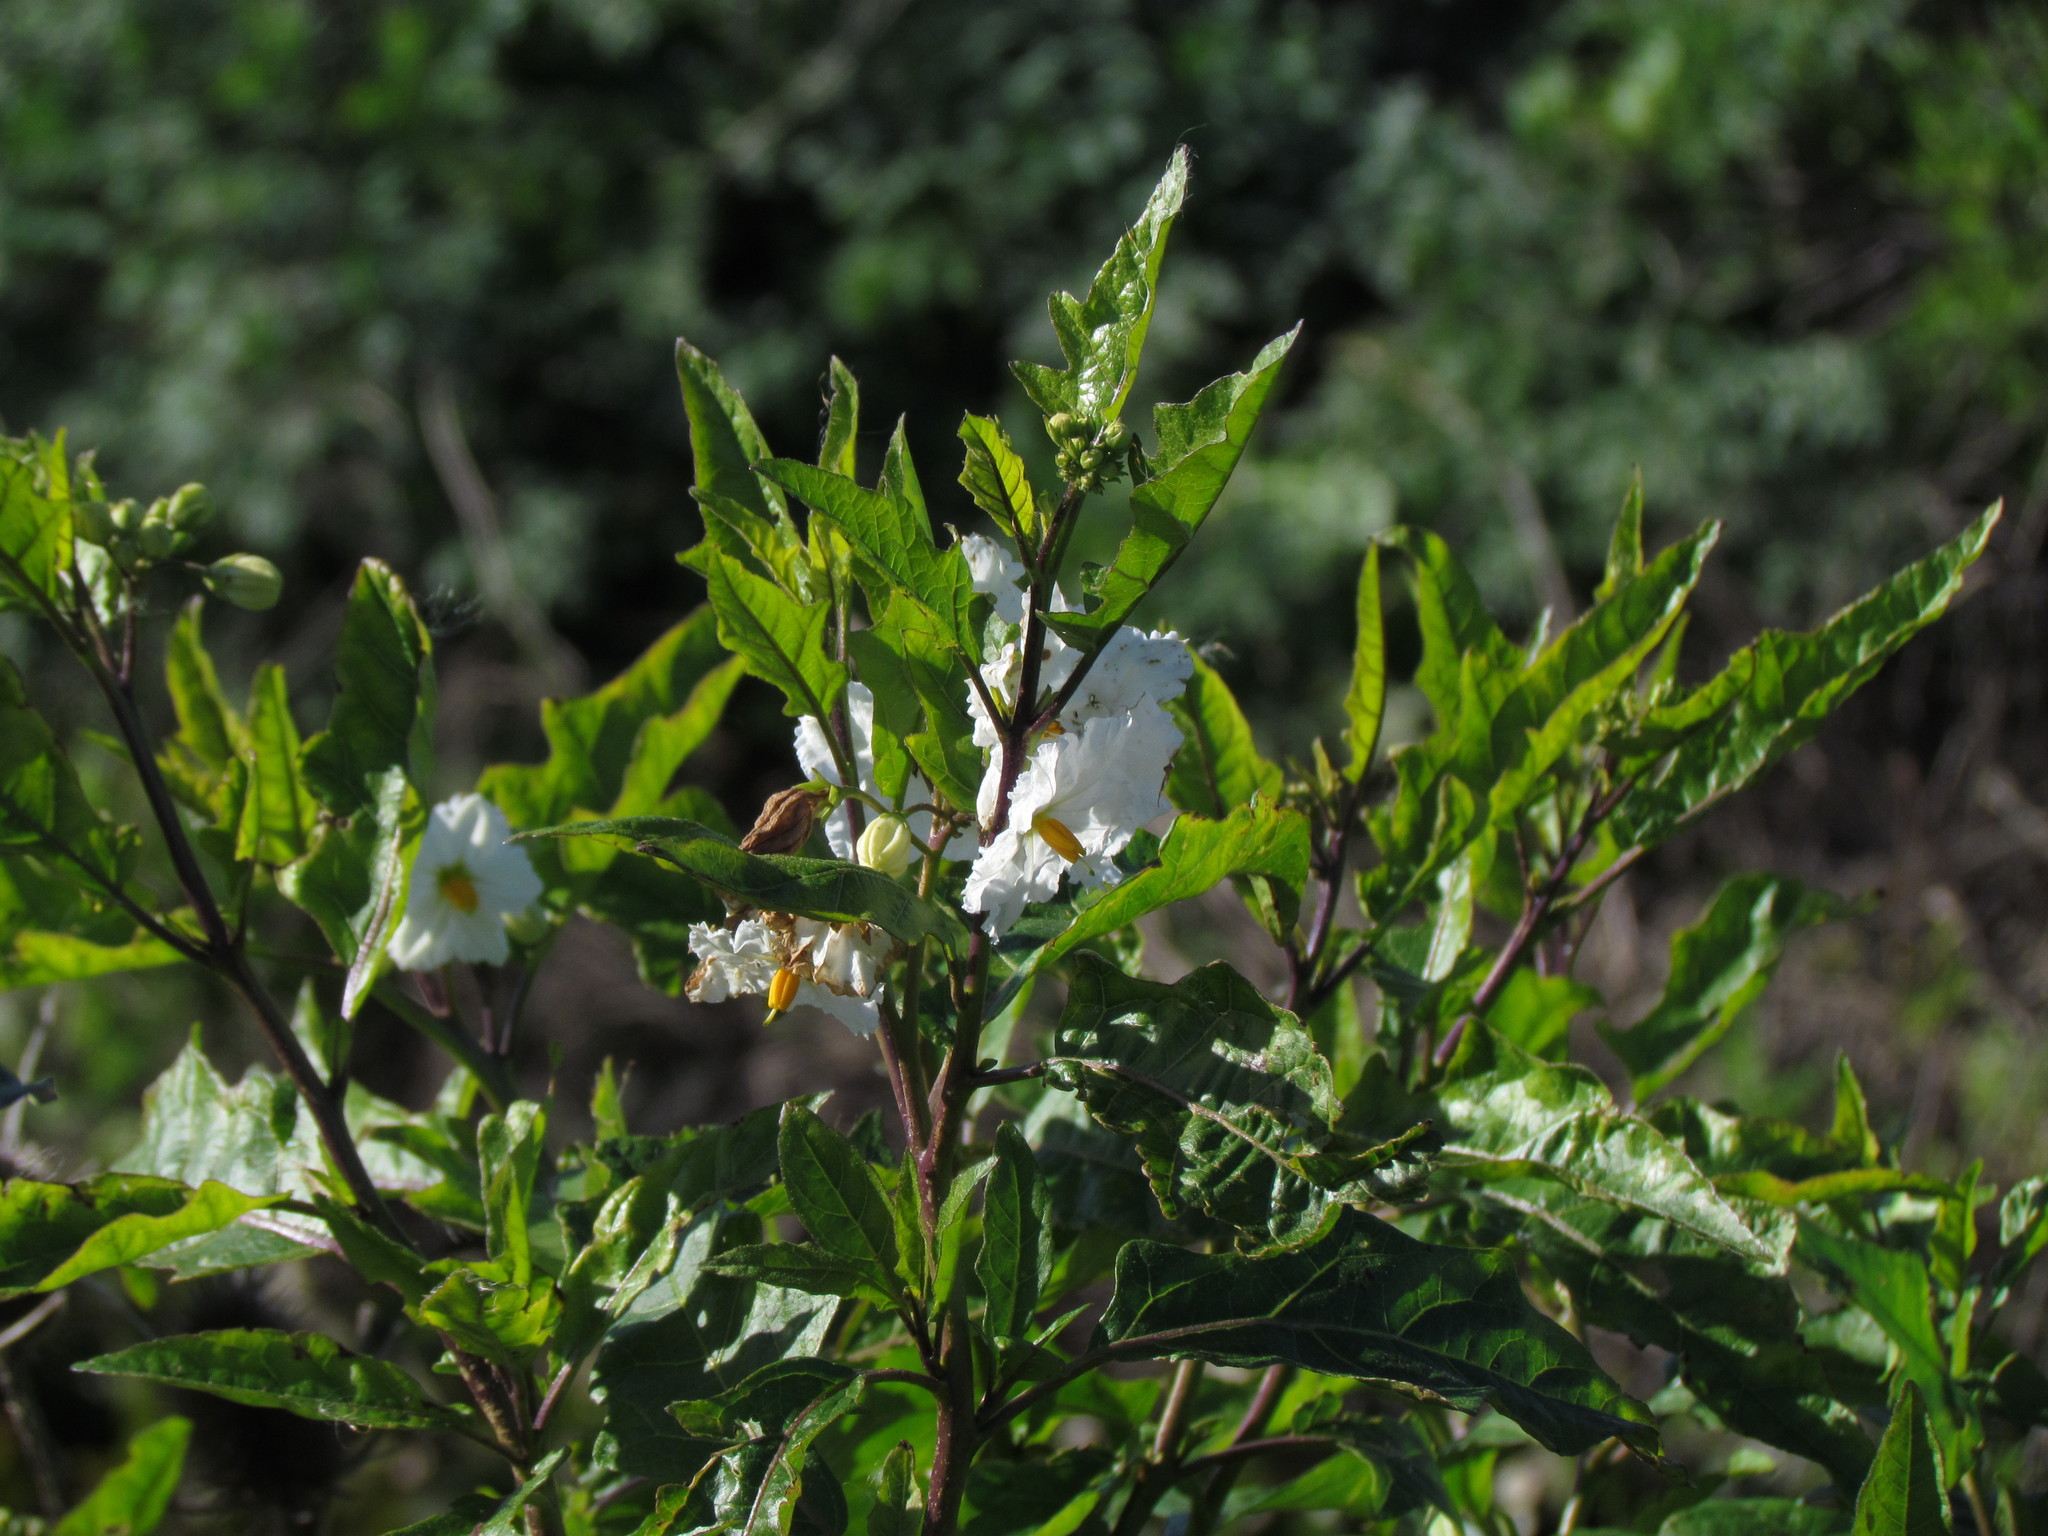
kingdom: Plantae
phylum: Tracheophyta
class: Magnoliopsida
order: Solanales
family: Solanaceae
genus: Solanum
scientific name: Solanum bonariense
